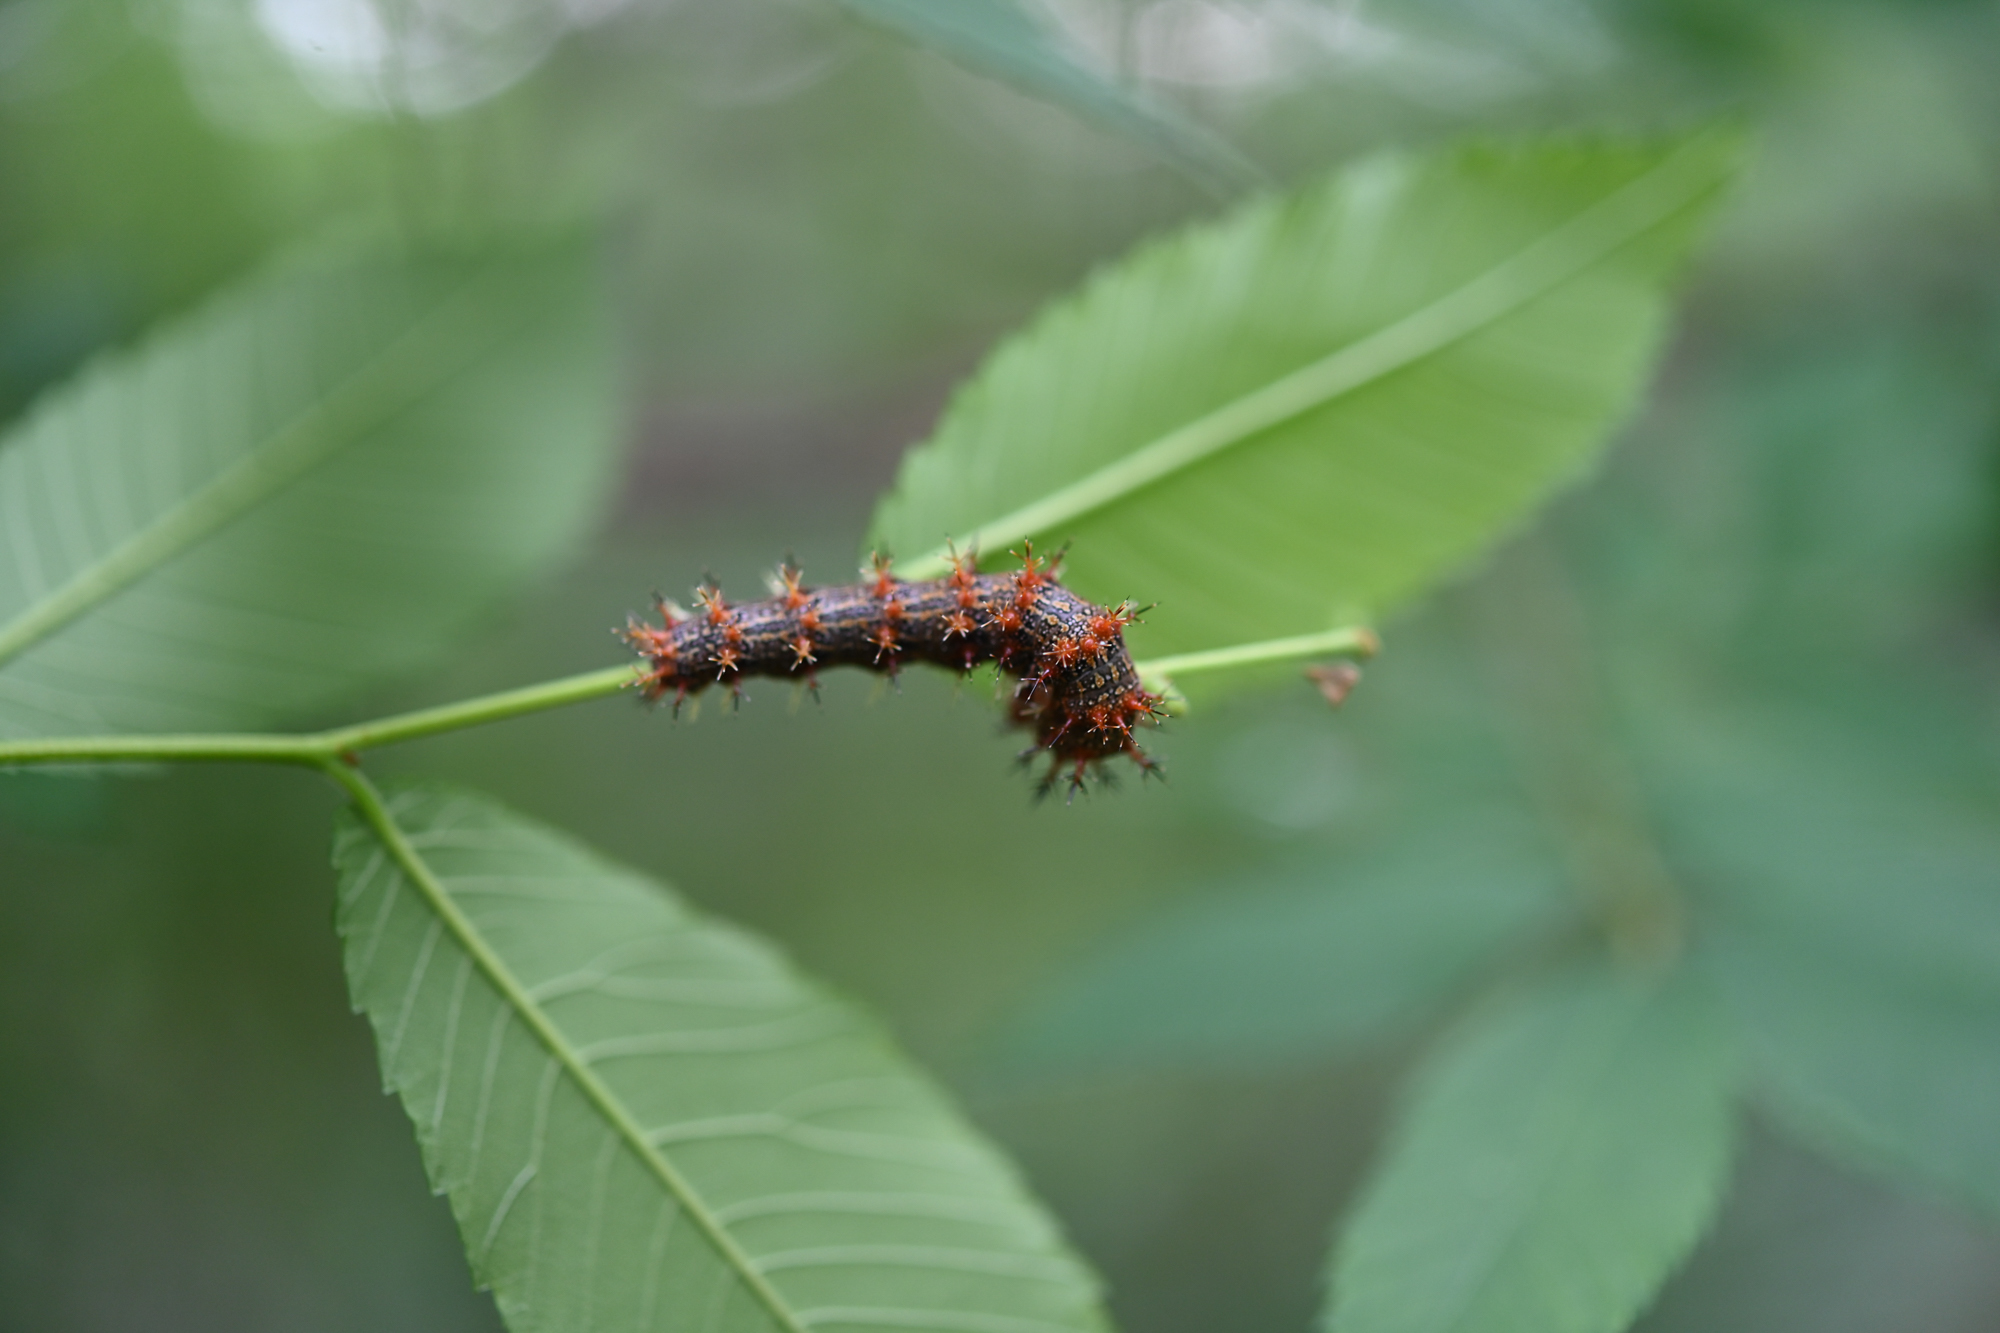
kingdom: Animalia
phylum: Arthropoda
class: Insecta
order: Lepidoptera
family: Nymphalidae
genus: Polygonia
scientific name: Polygonia interrogationis
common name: Question mark
